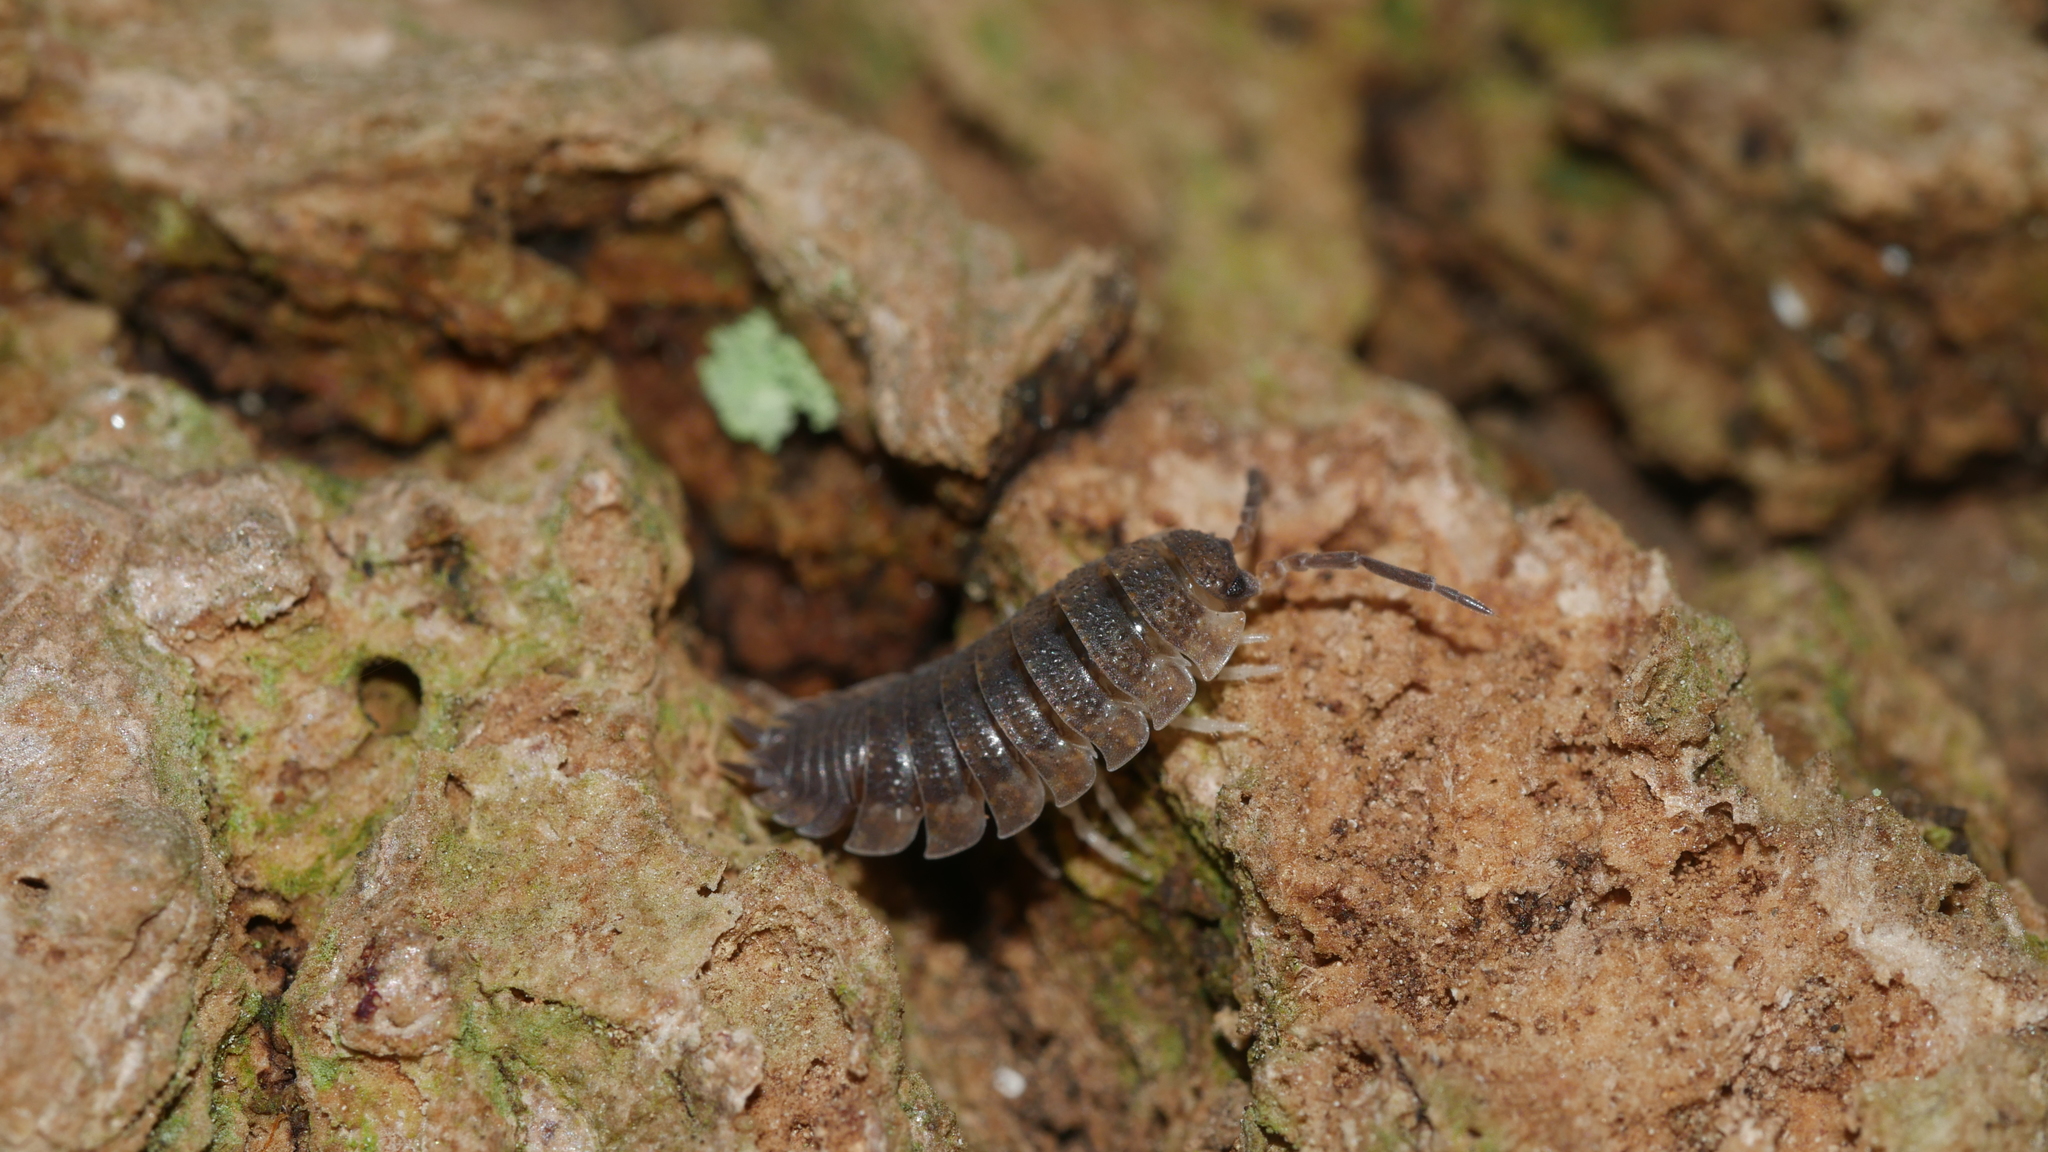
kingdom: Animalia
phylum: Arthropoda
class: Malacostraca
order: Isopoda
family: Porcellionidae
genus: Porcellio
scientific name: Porcellio scaber
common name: Common rough woodlouse
